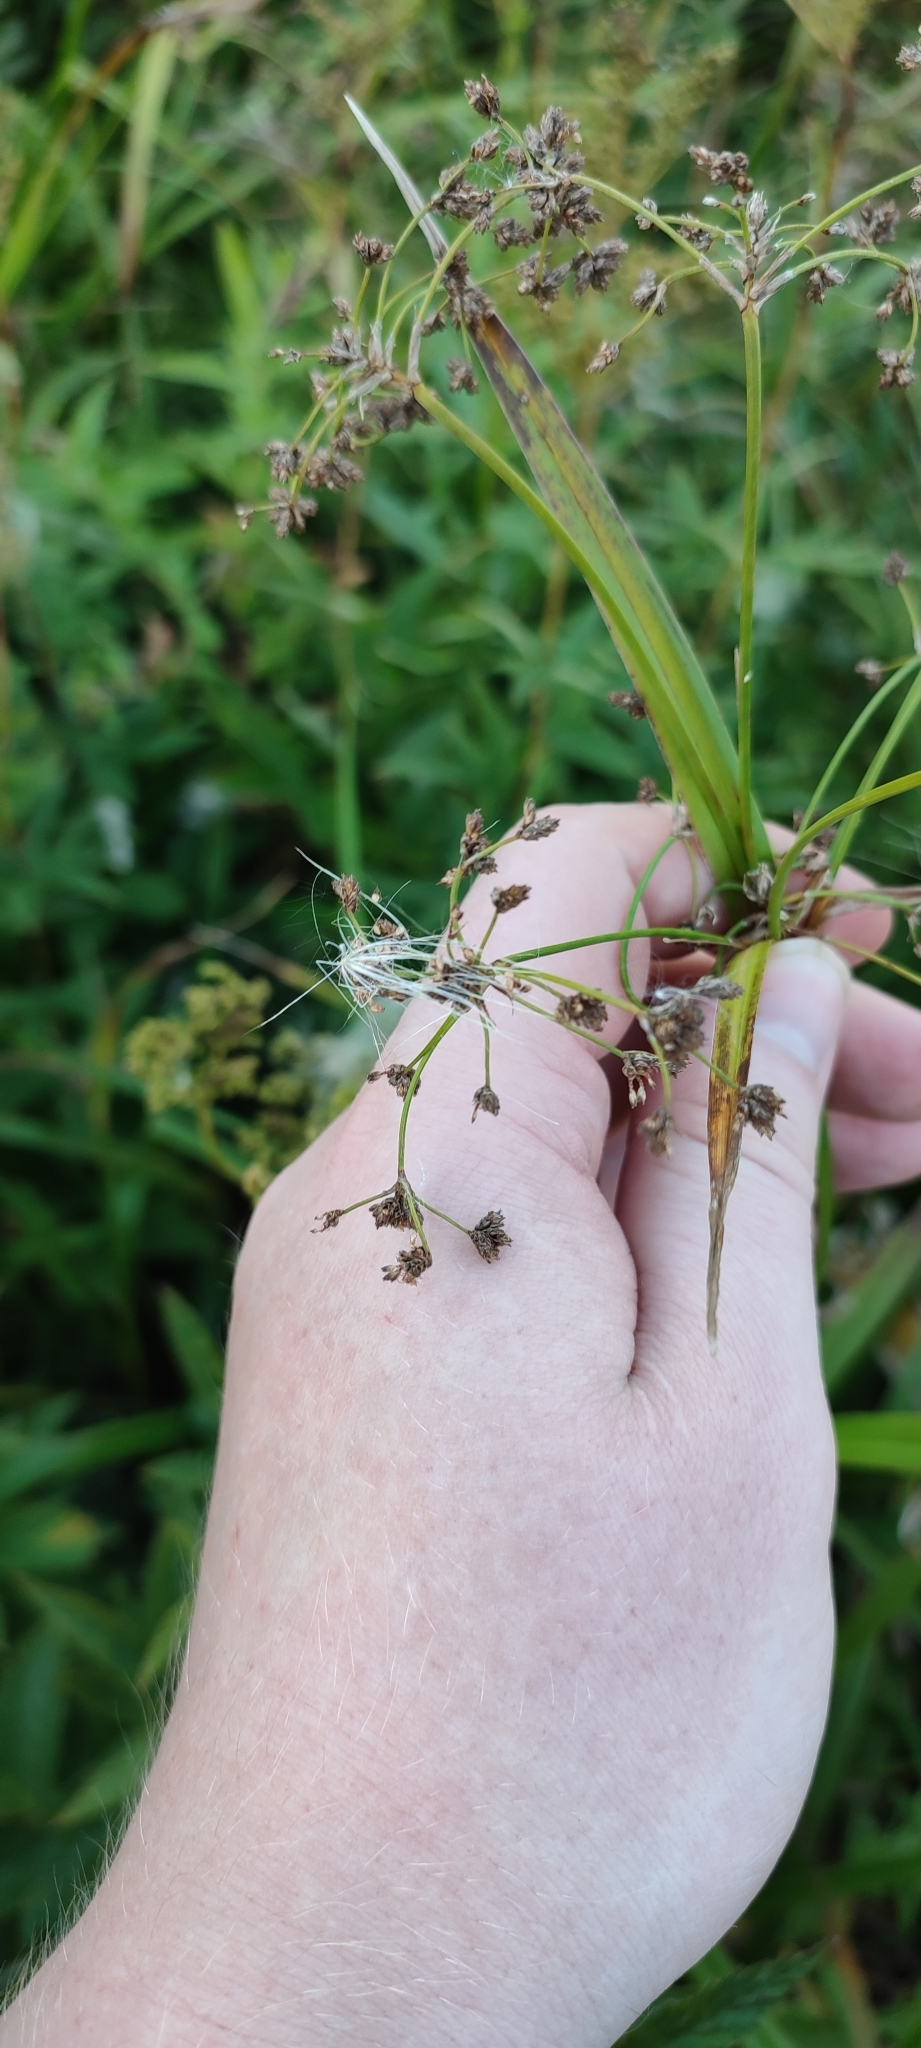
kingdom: Plantae
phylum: Tracheophyta
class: Liliopsida
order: Poales
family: Cyperaceae
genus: Scirpus
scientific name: Scirpus sylvaticus
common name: Wood club-rush
